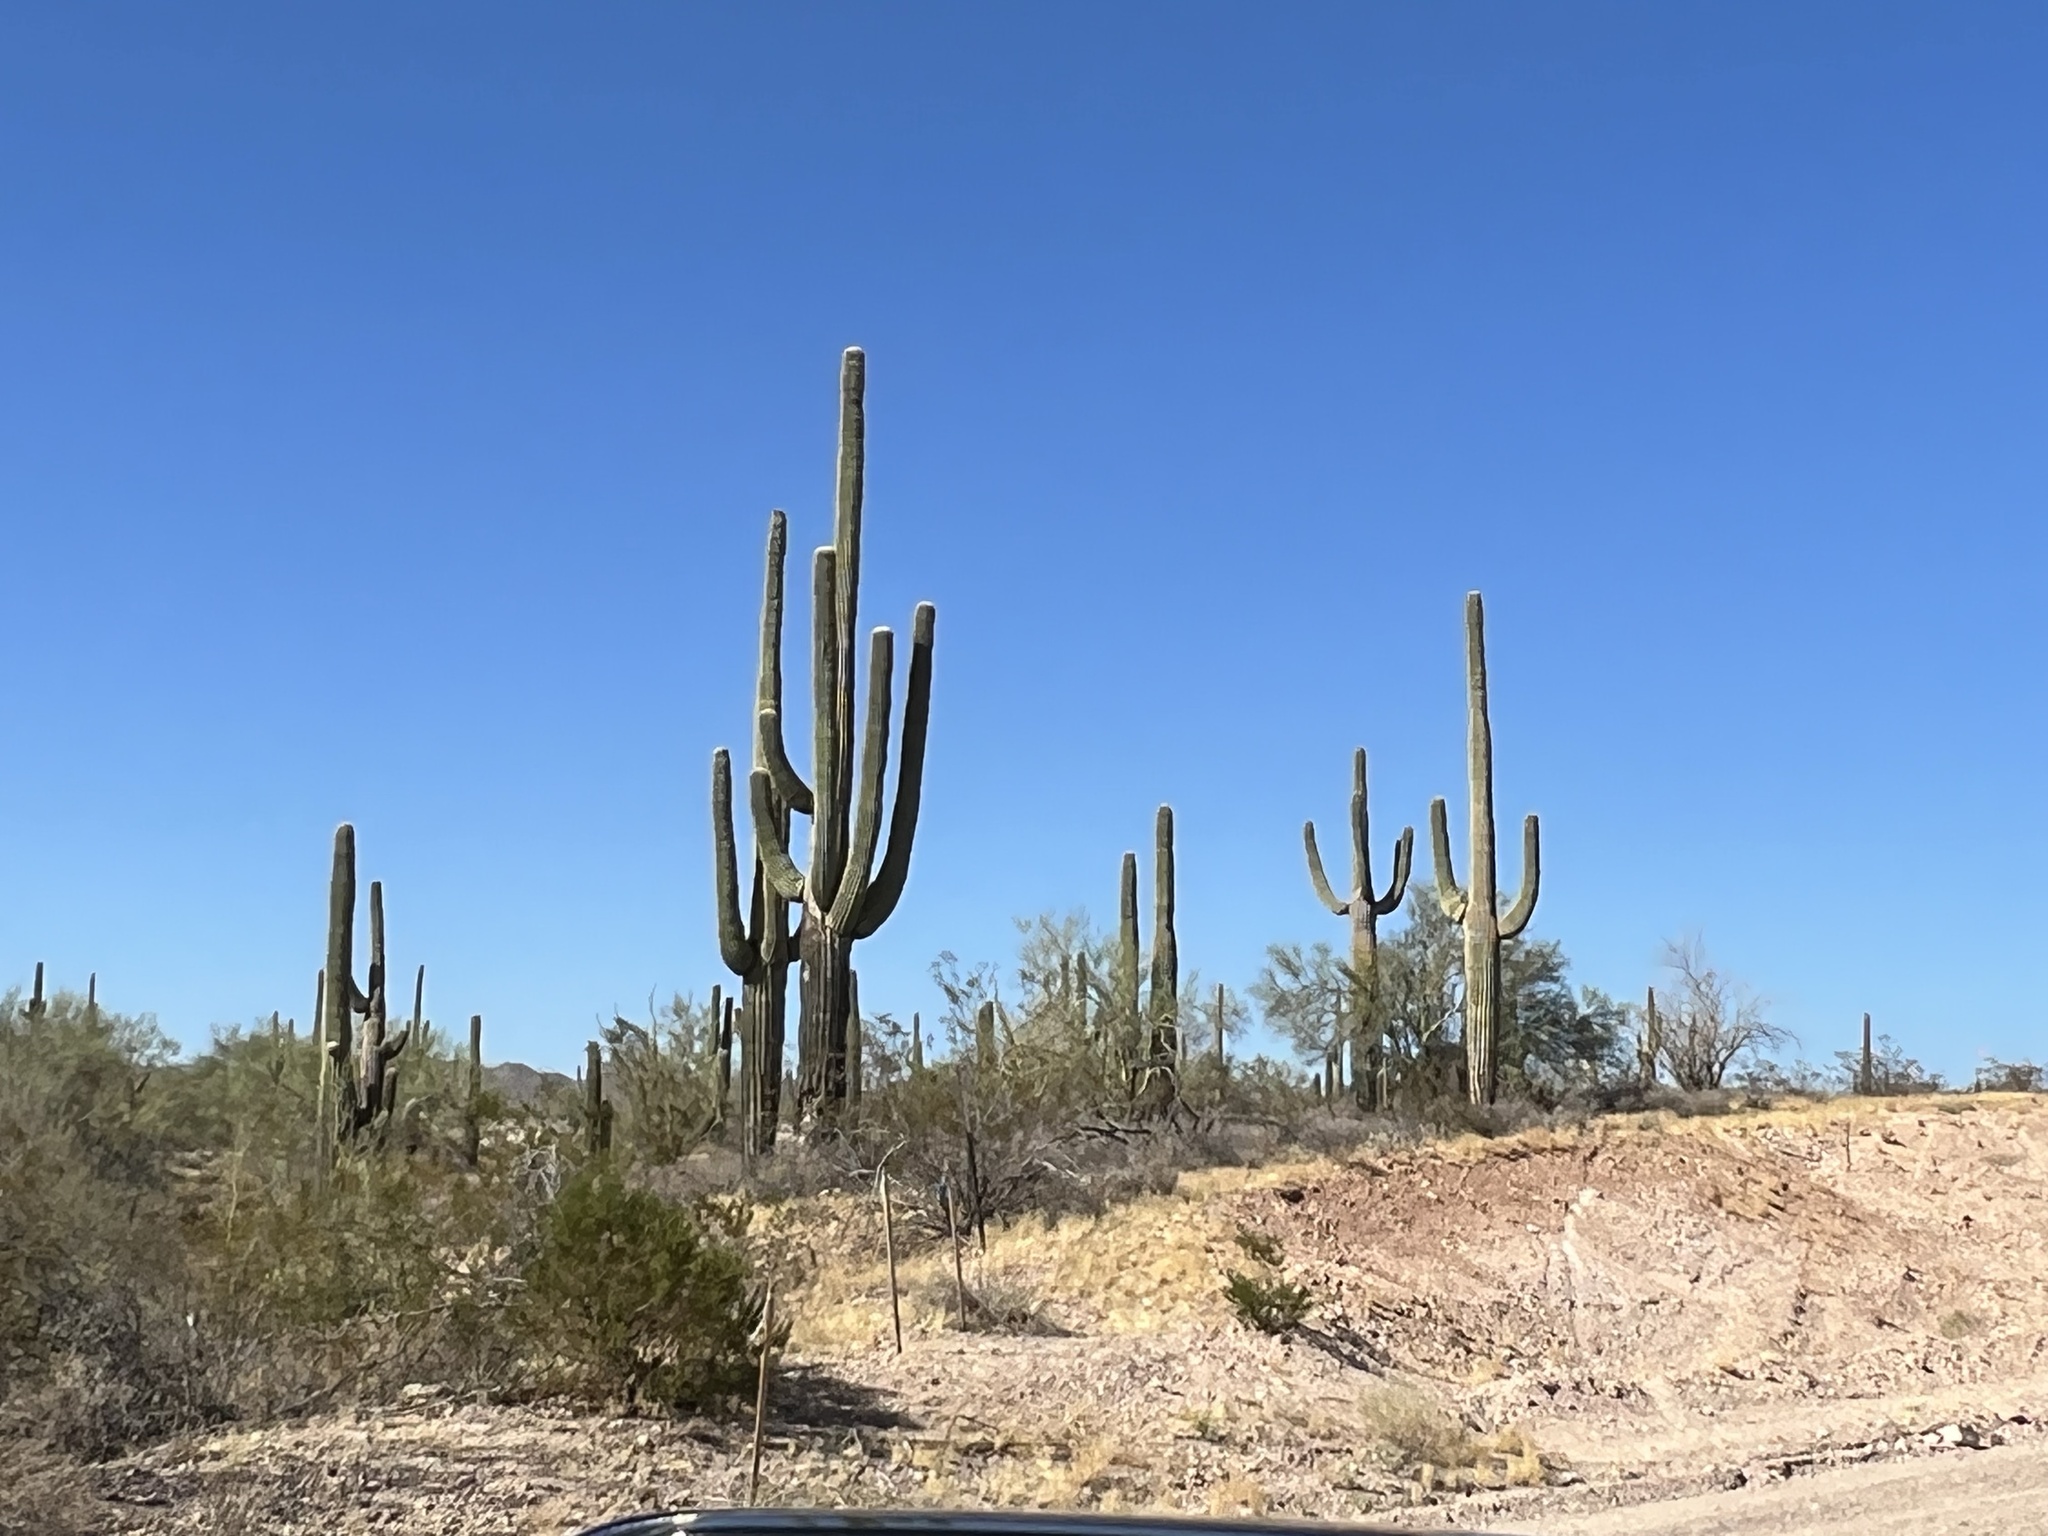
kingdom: Plantae
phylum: Tracheophyta
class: Magnoliopsida
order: Caryophyllales
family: Cactaceae
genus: Carnegiea
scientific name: Carnegiea gigantea
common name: Saguaro
